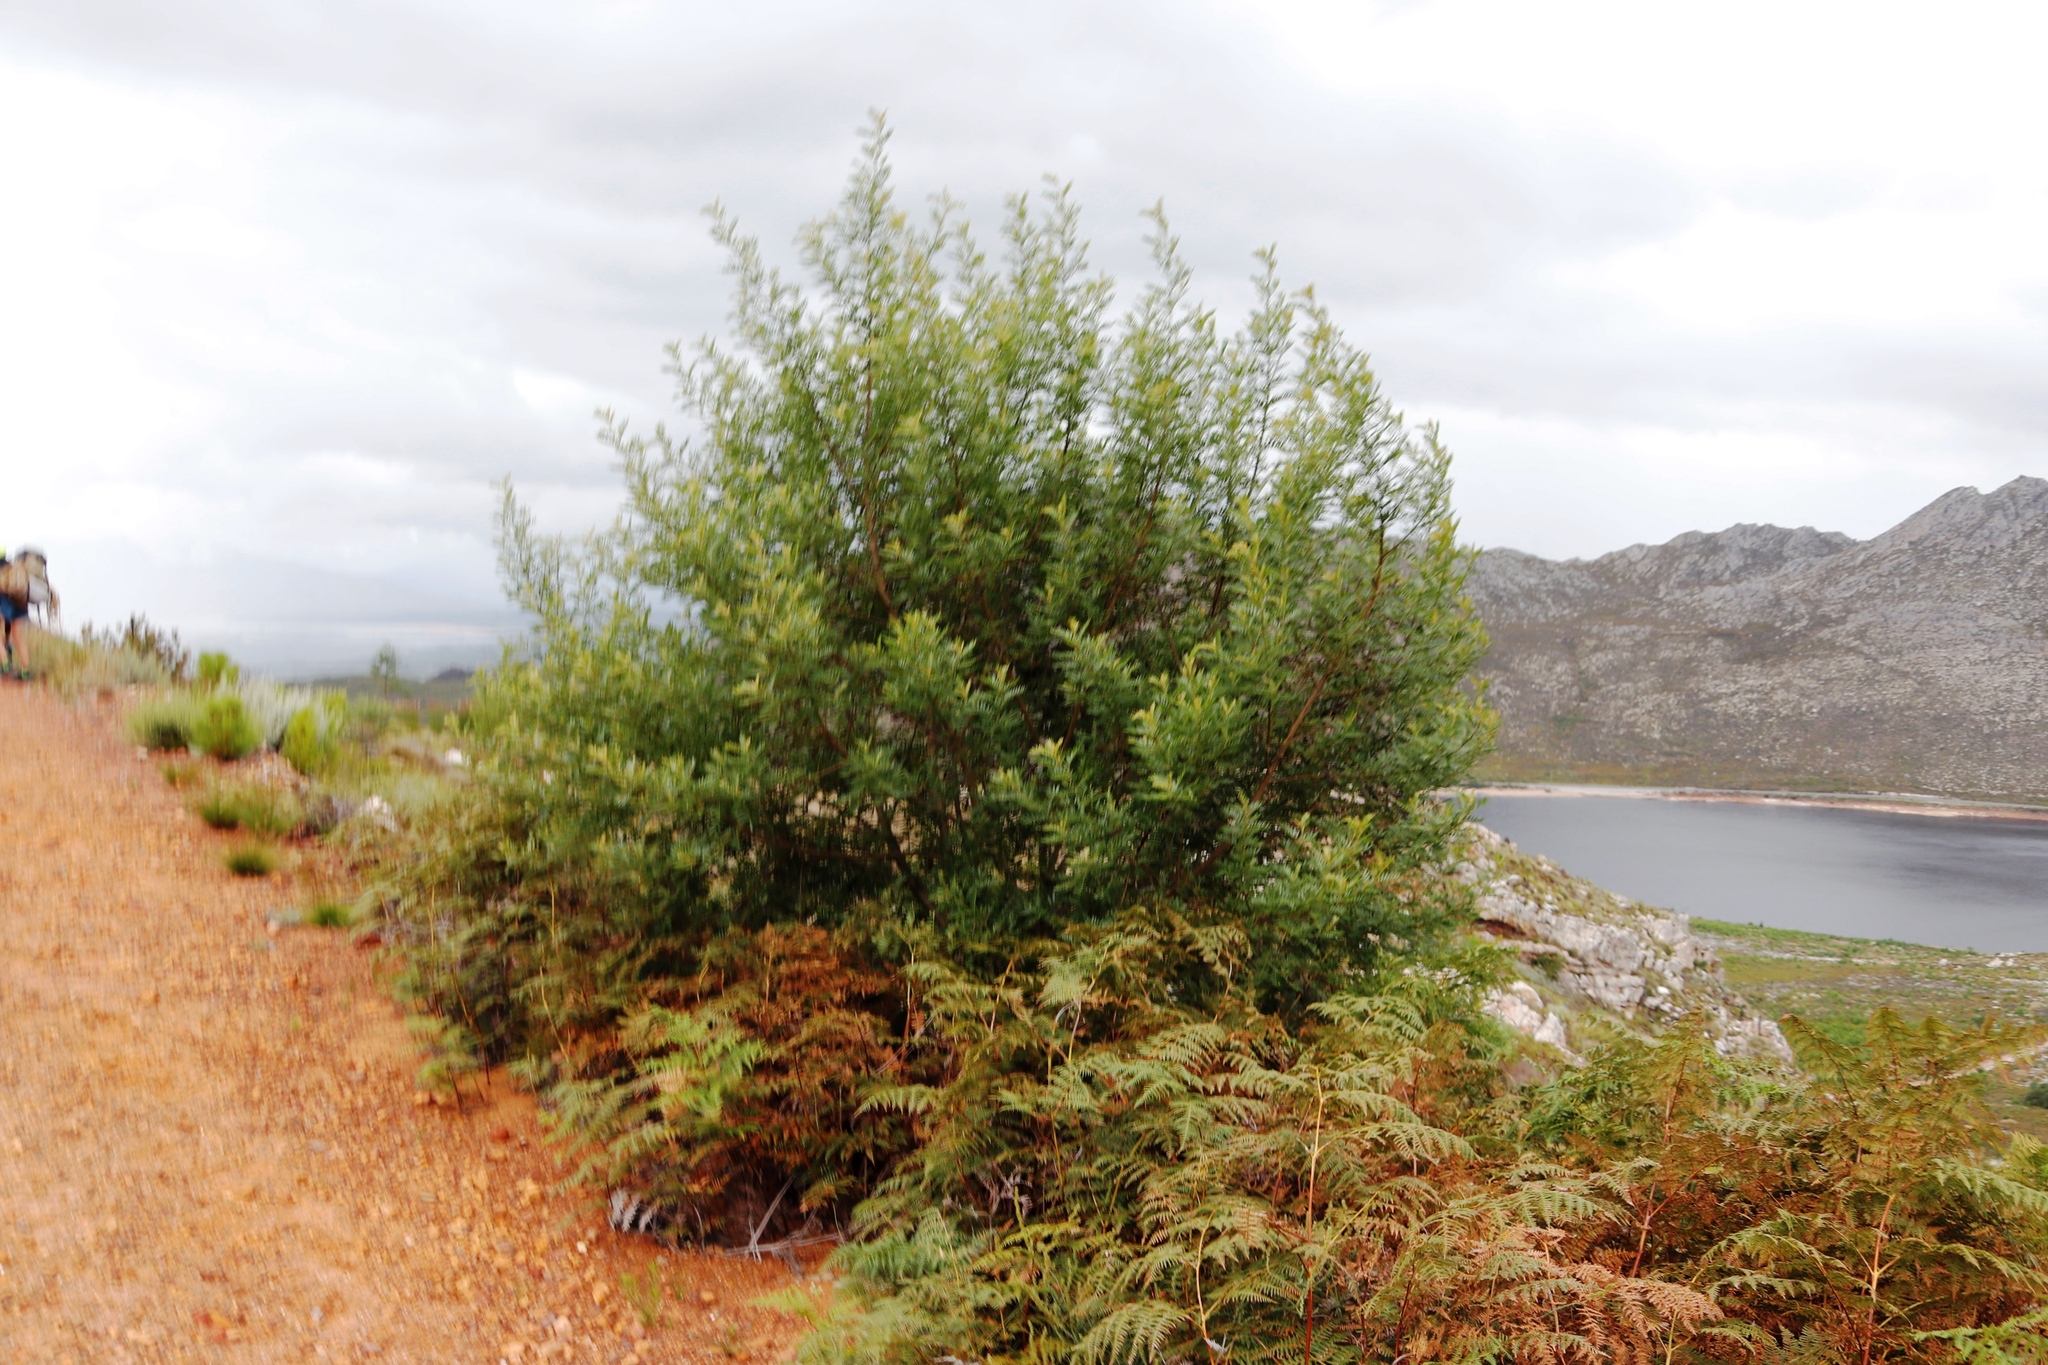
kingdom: Plantae
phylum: Tracheophyta
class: Magnoliopsida
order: Fabales
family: Fabaceae
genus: Virgilia
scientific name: Virgilia oroboides
